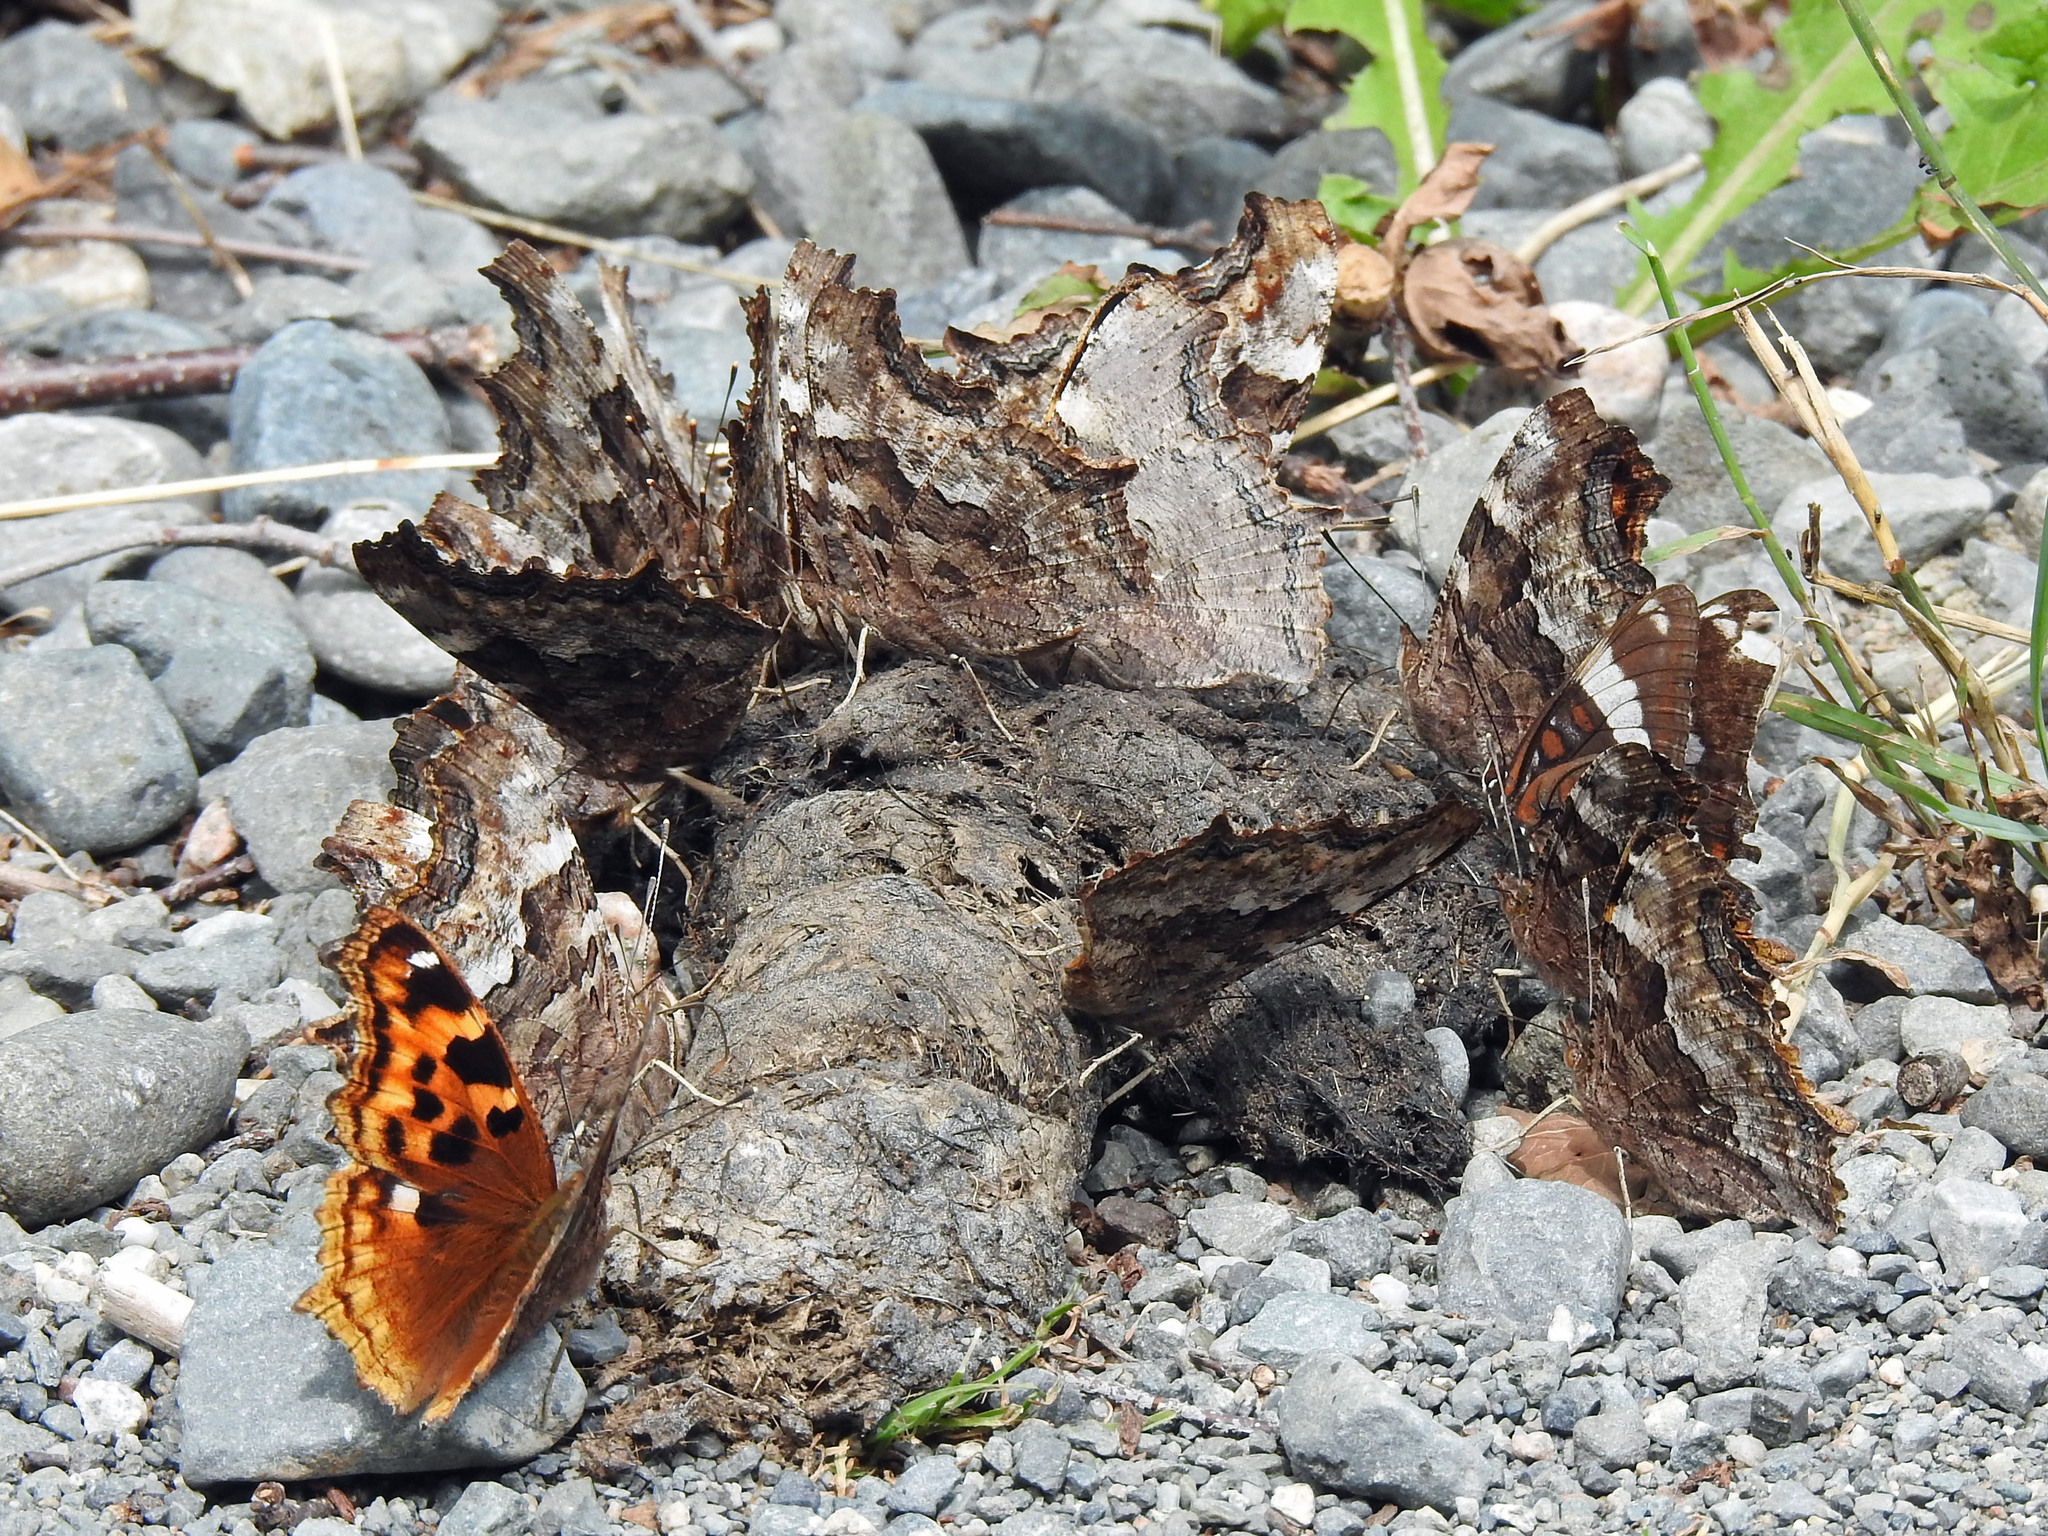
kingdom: Animalia
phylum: Arthropoda
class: Insecta
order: Lepidoptera
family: Nymphalidae
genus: Polygonia
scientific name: Polygonia vaualbum
